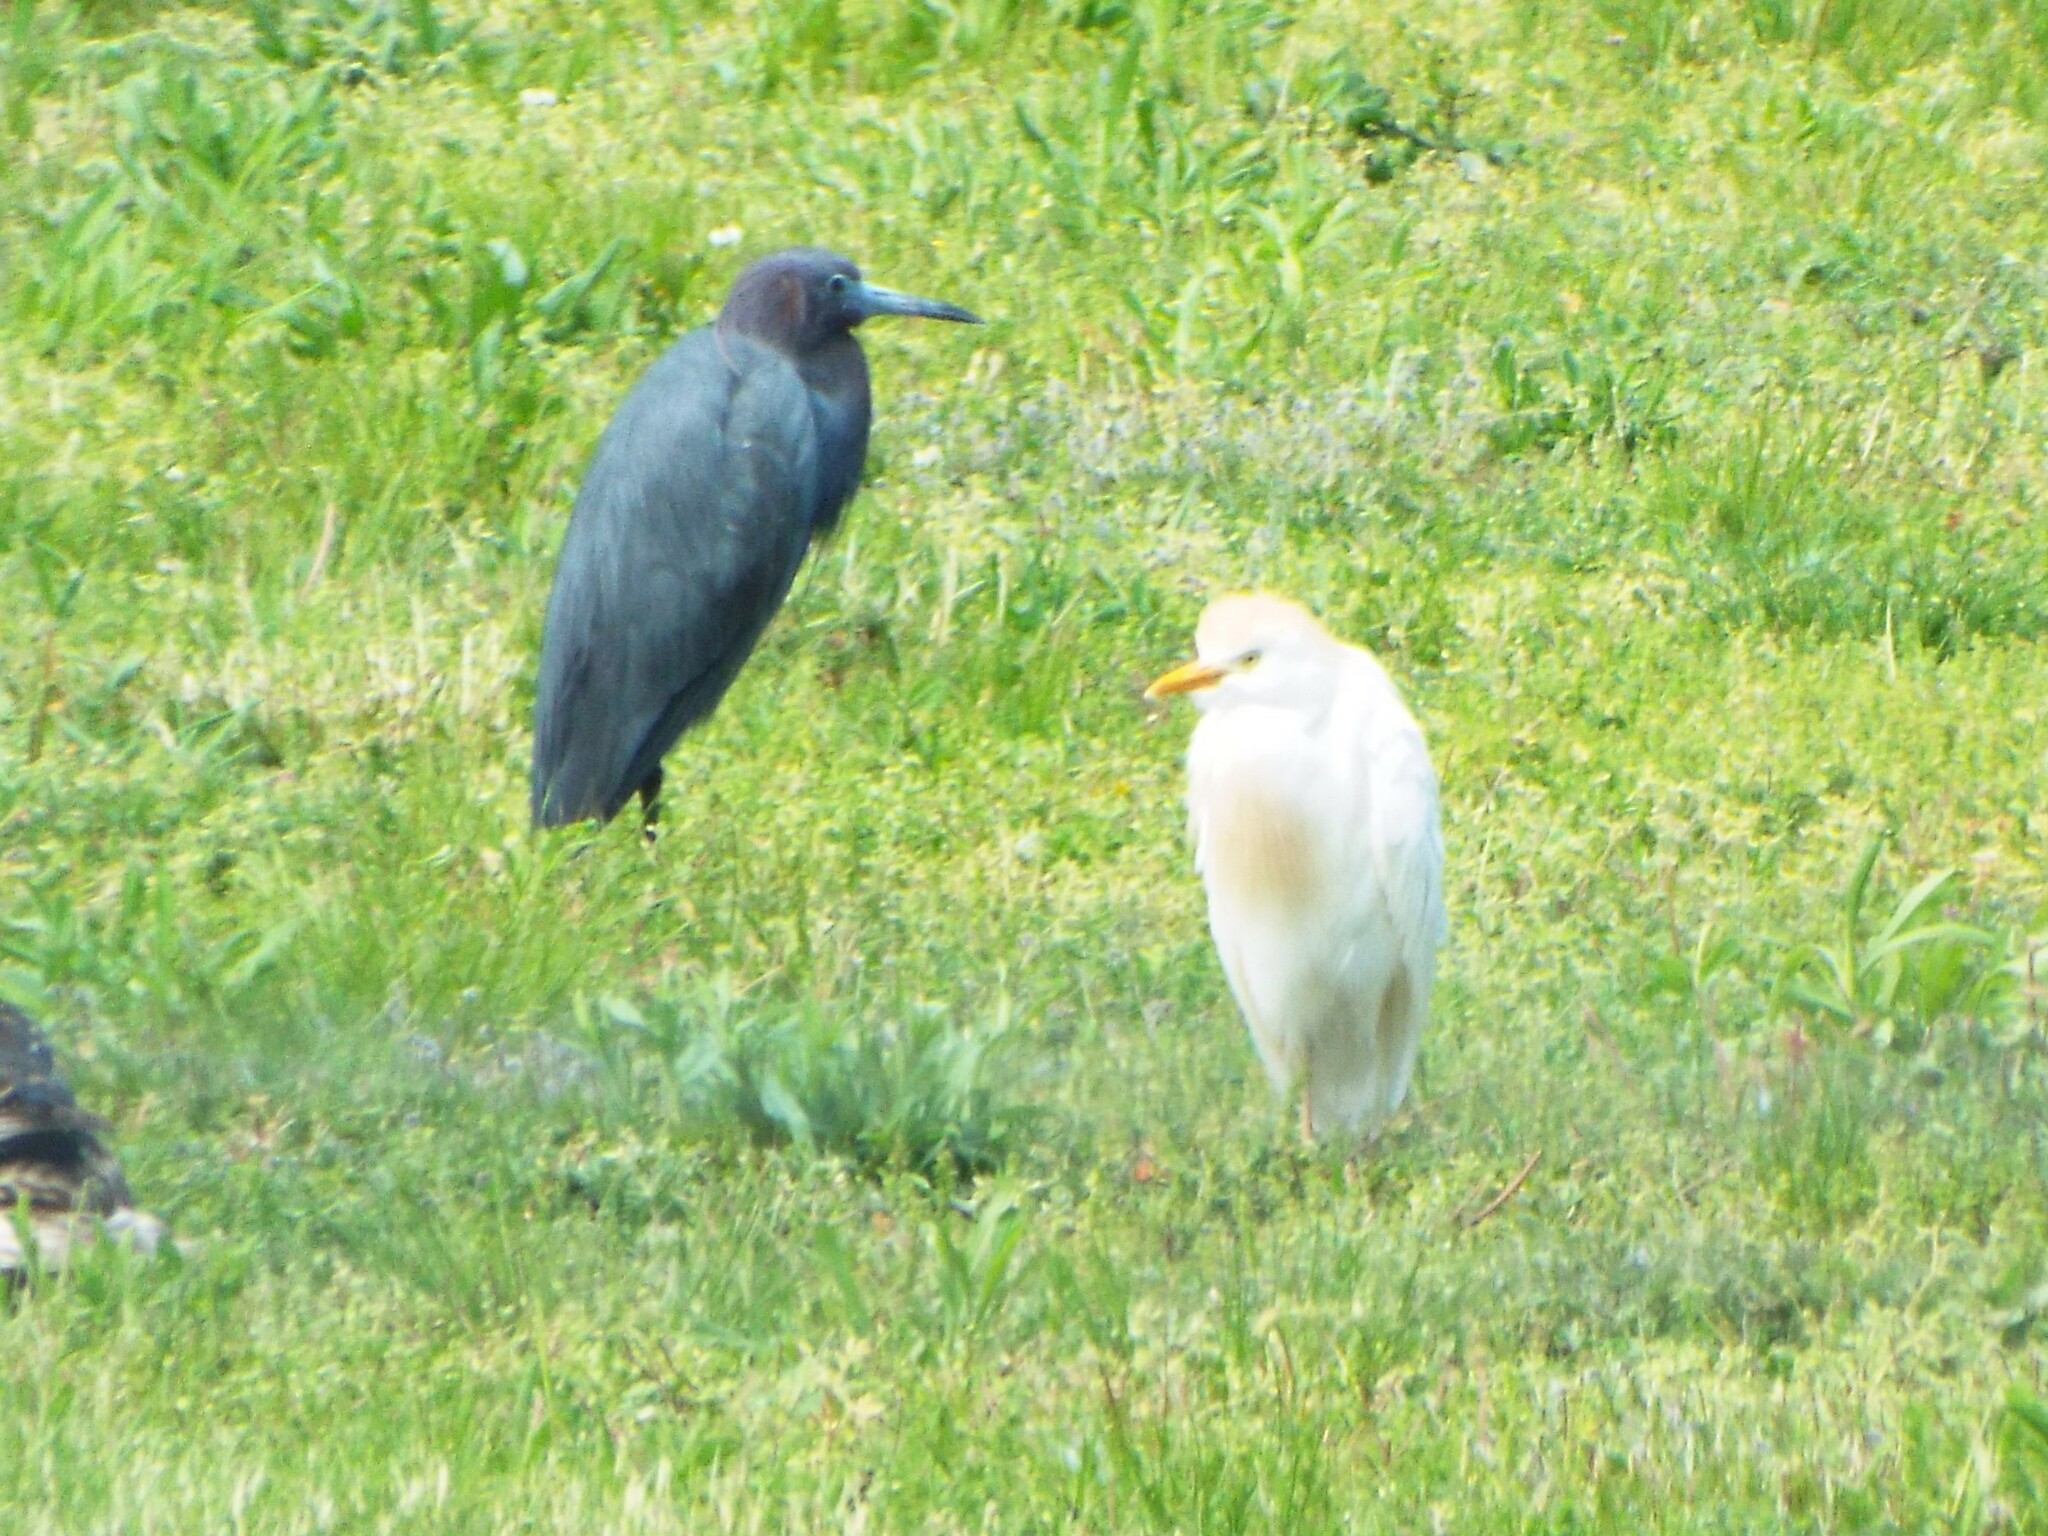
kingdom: Animalia
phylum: Chordata
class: Aves
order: Pelecaniformes
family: Ardeidae
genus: Bubulcus
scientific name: Bubulcus ibis
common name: Cattle egret
